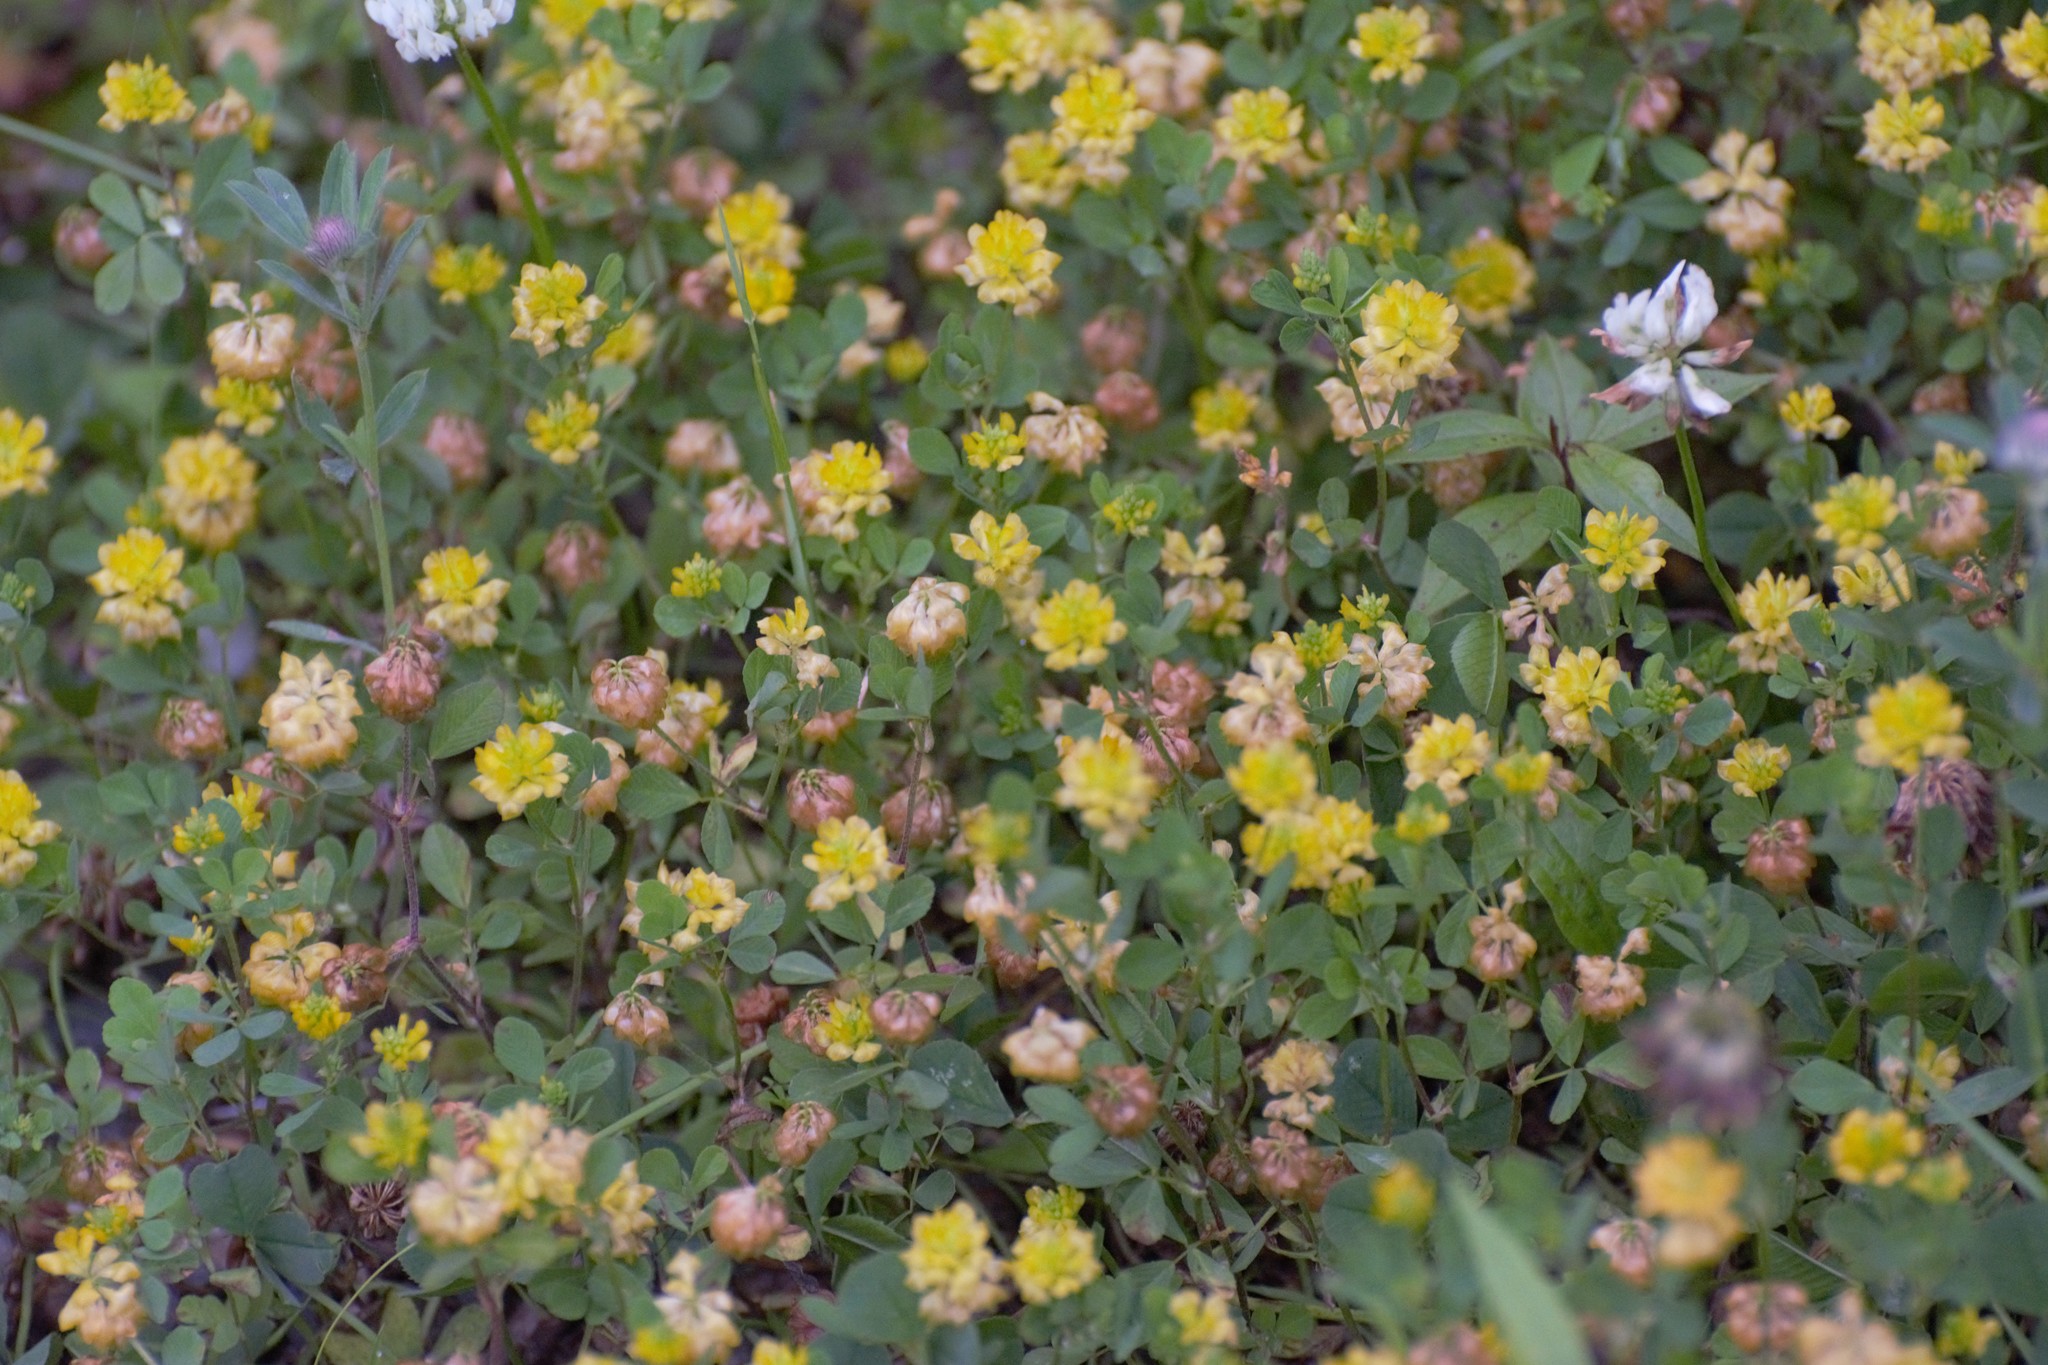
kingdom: Plantae
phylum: Tracheophyta
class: Magnoliopsida
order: Fabales
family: Fabaceae
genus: Trifolium
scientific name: Trifolium campestre
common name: Field clover
